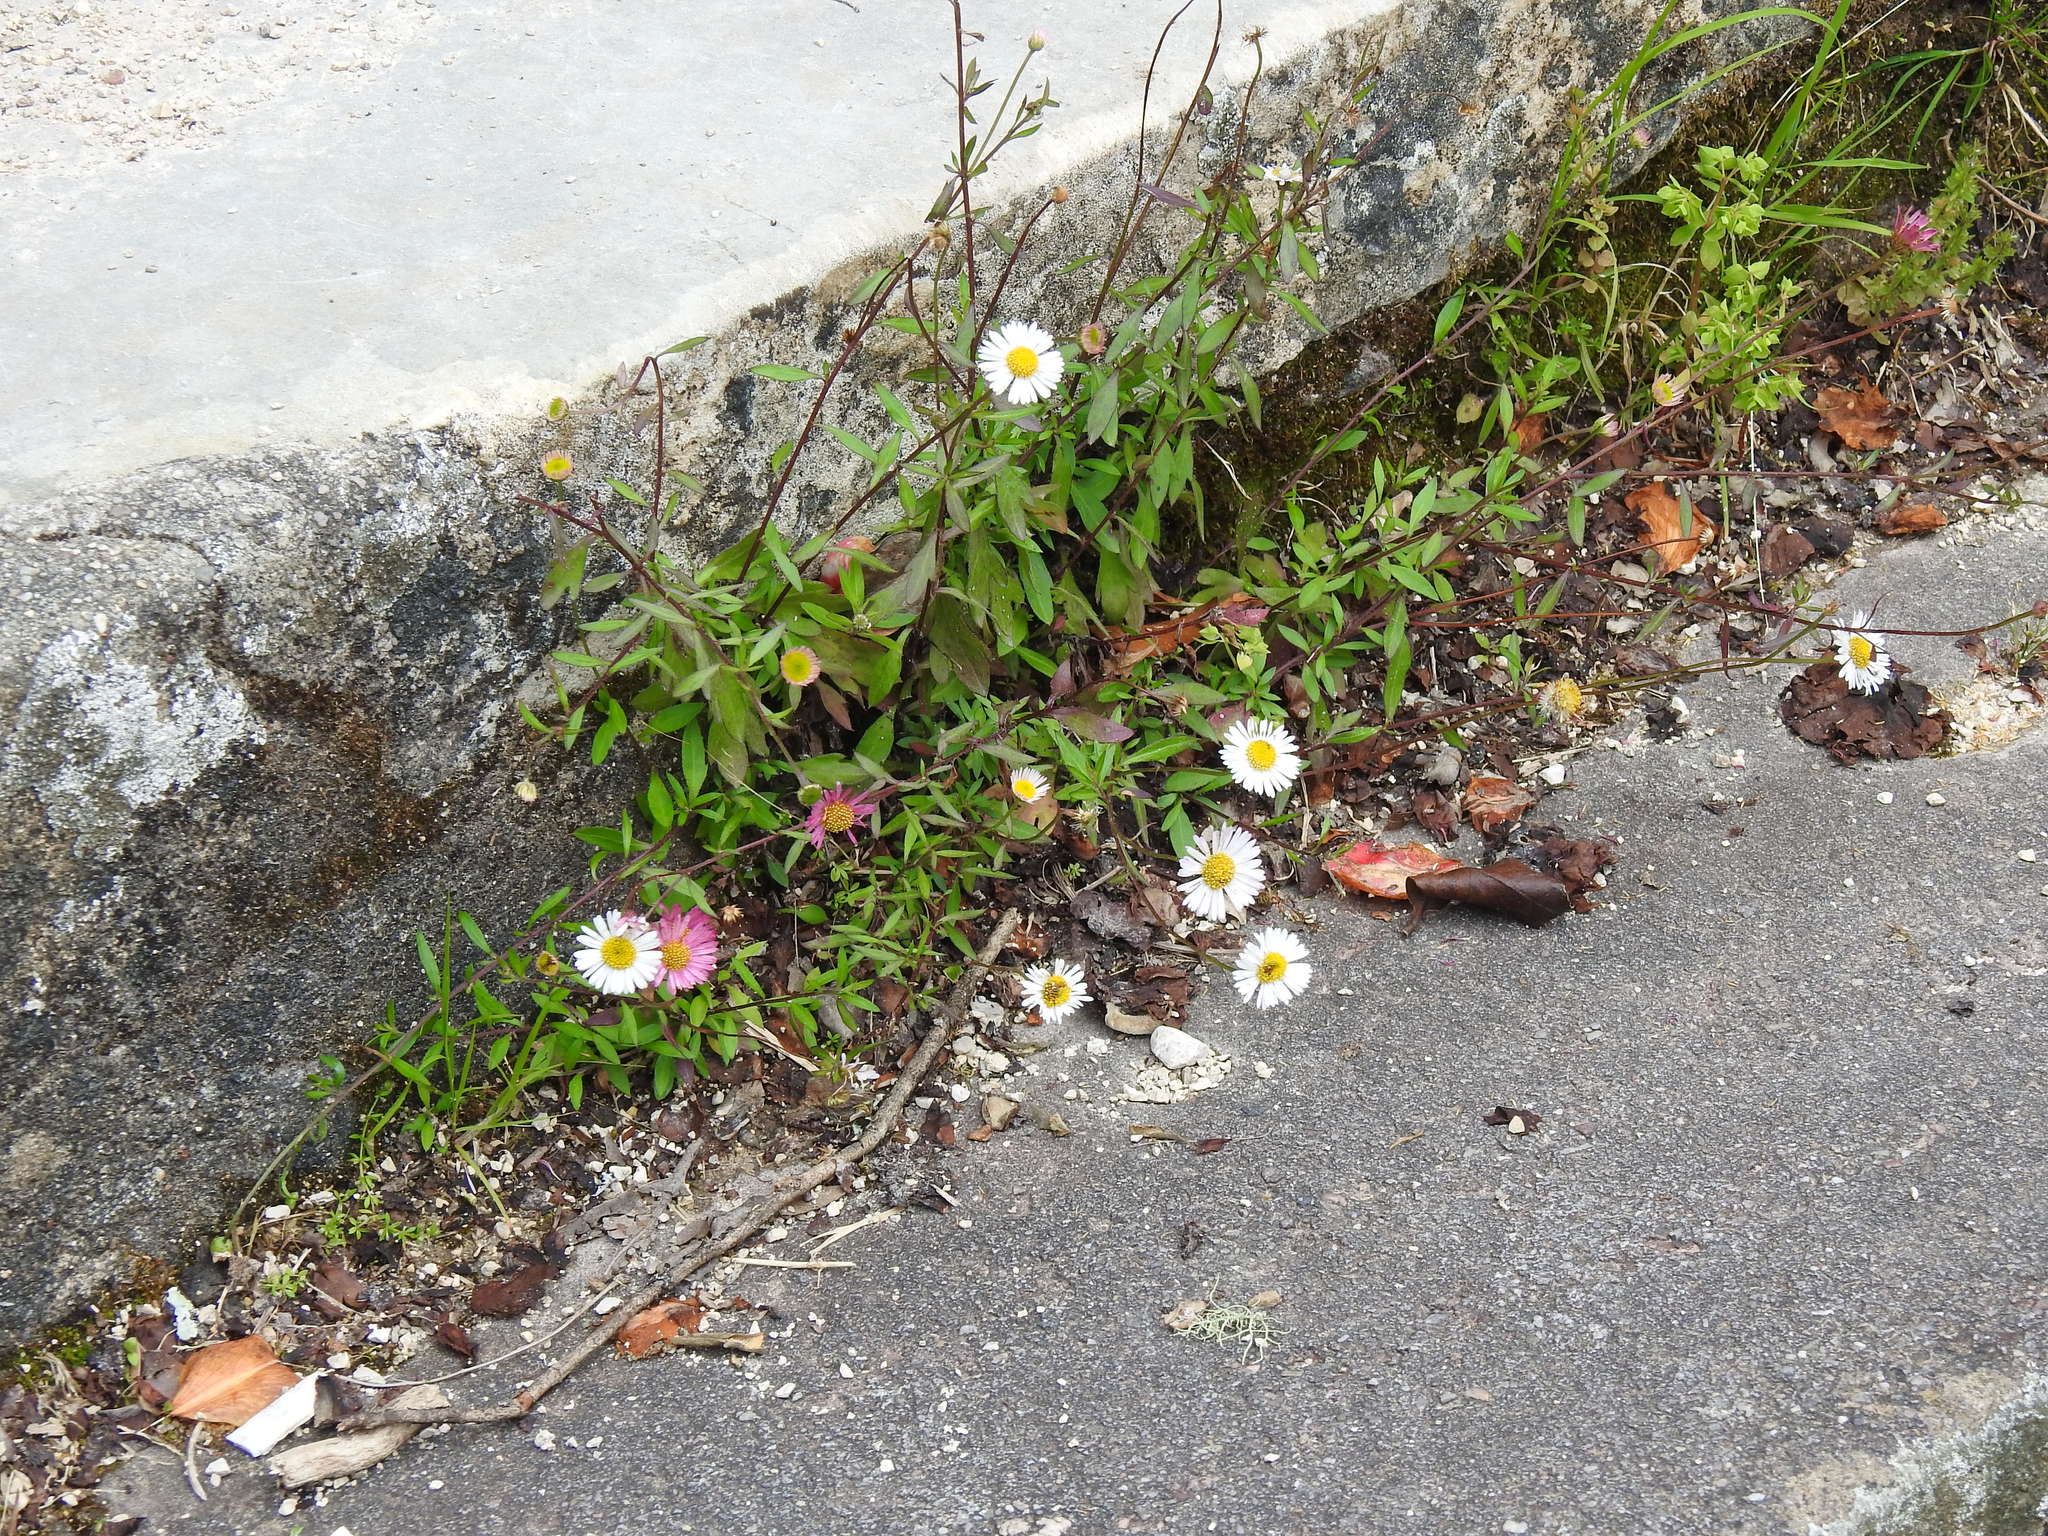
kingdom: Plantae
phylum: Tracheophyta
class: Magnoliopsida
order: Asterales
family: Asteraceae
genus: Erigeron
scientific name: Erigeron karvinskianus
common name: Mexican fleabane
